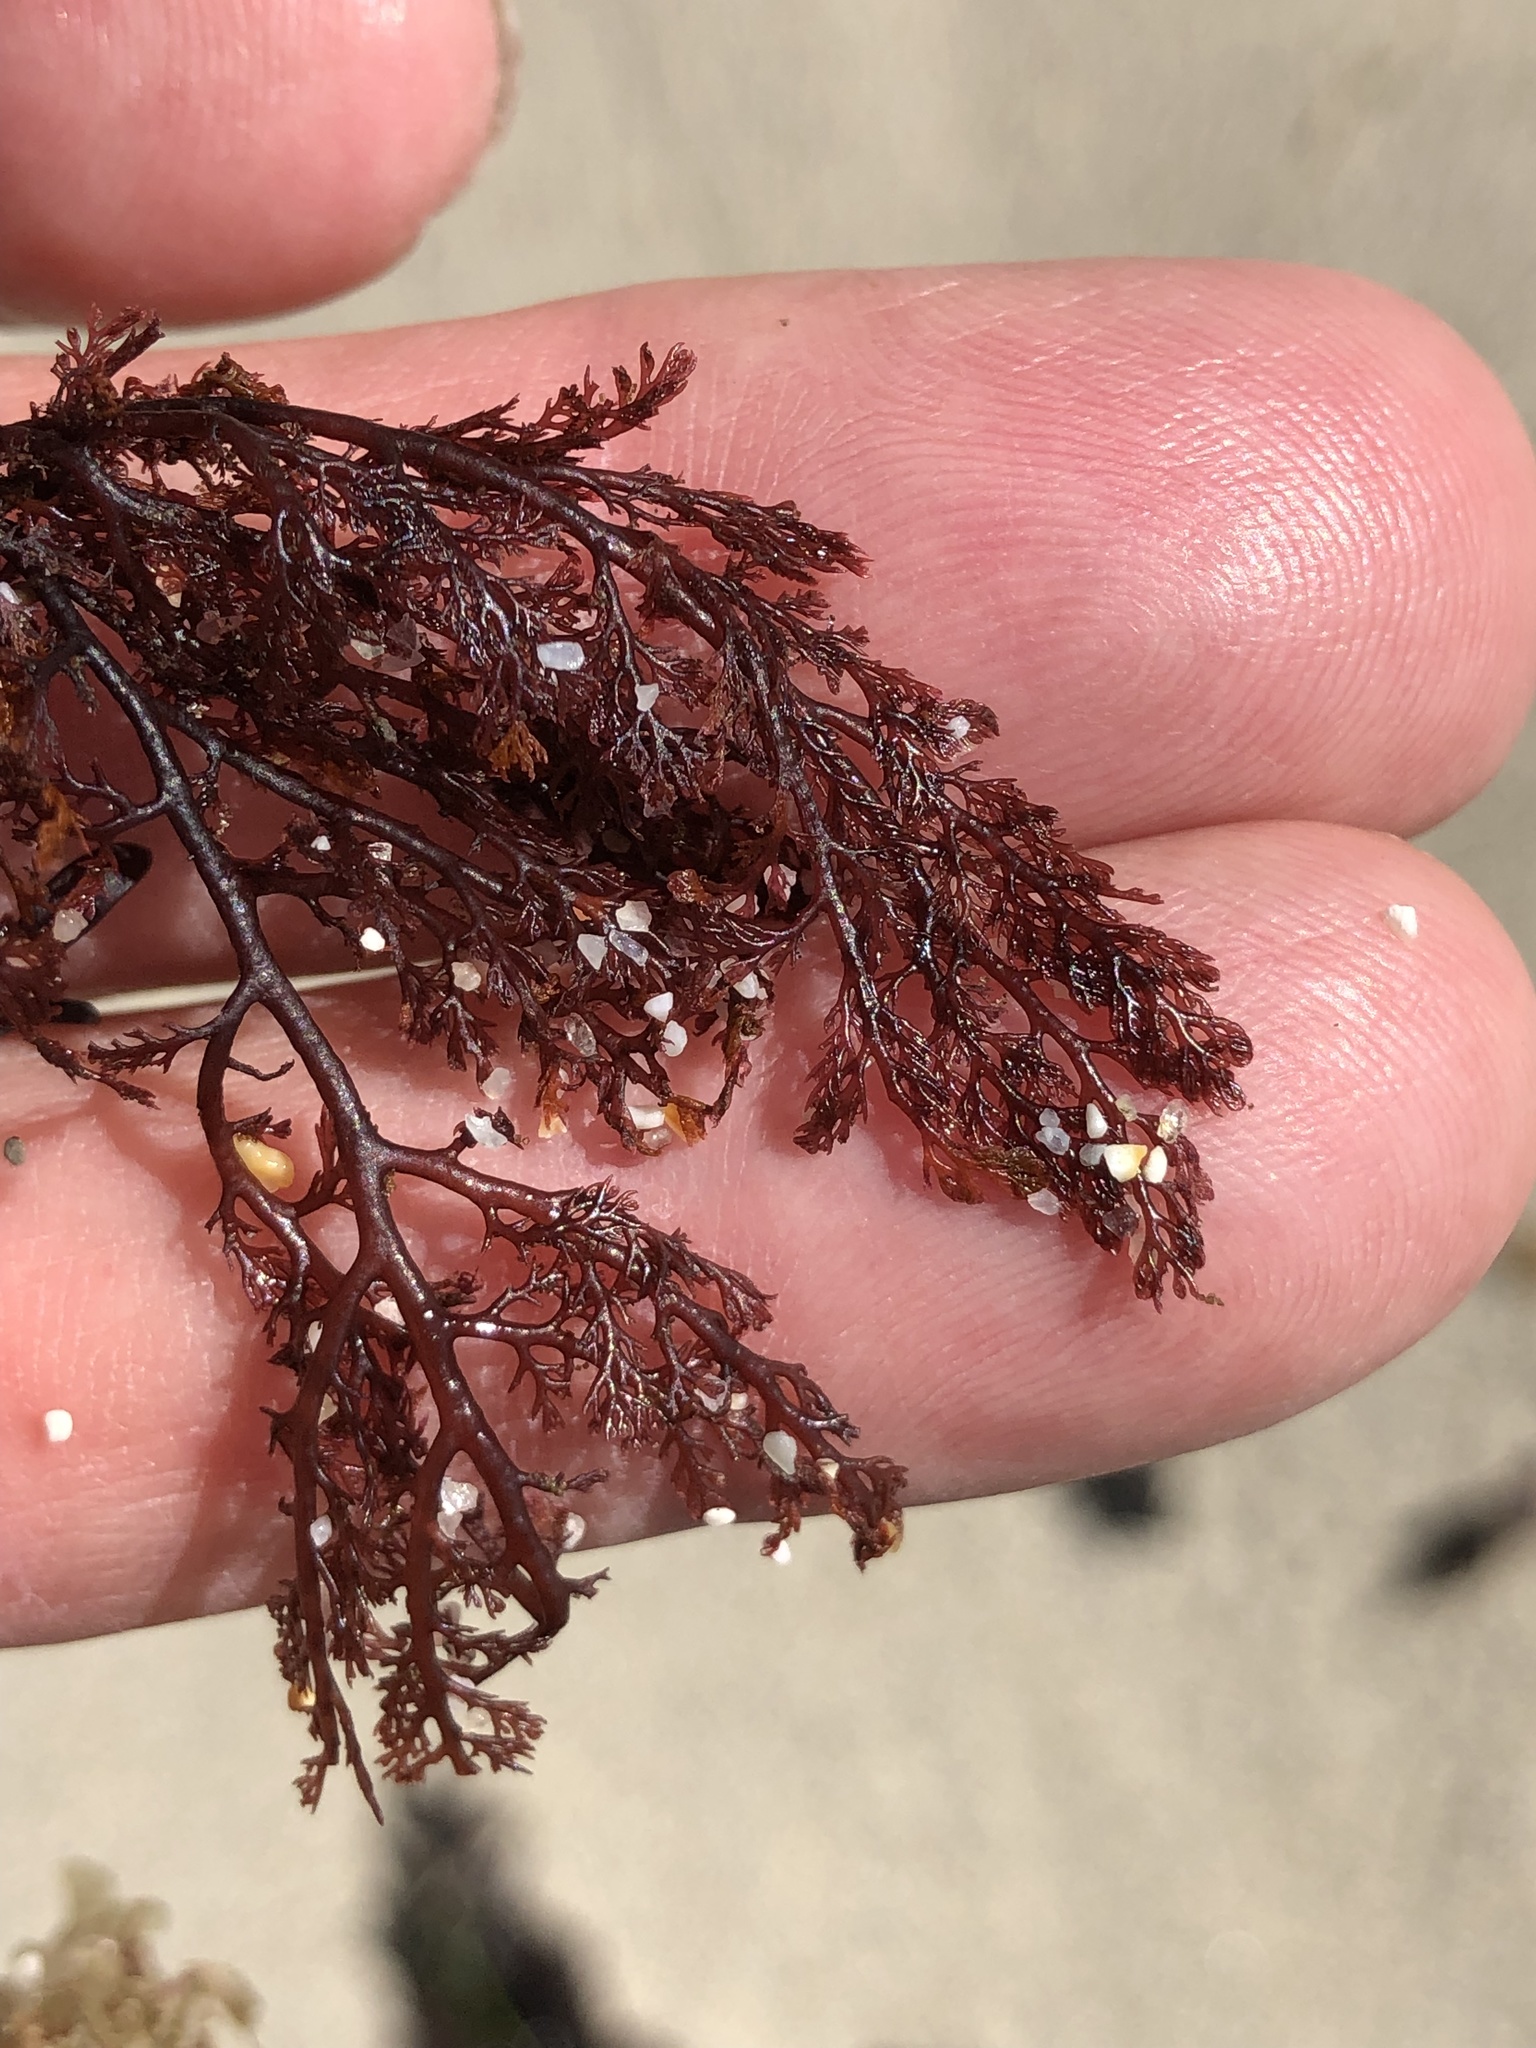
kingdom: Plantae
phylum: Rhodophyta
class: Florideophyceae
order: Ceramiales
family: Ceramiaceae
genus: Microcladia
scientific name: Microcladia coulteri
